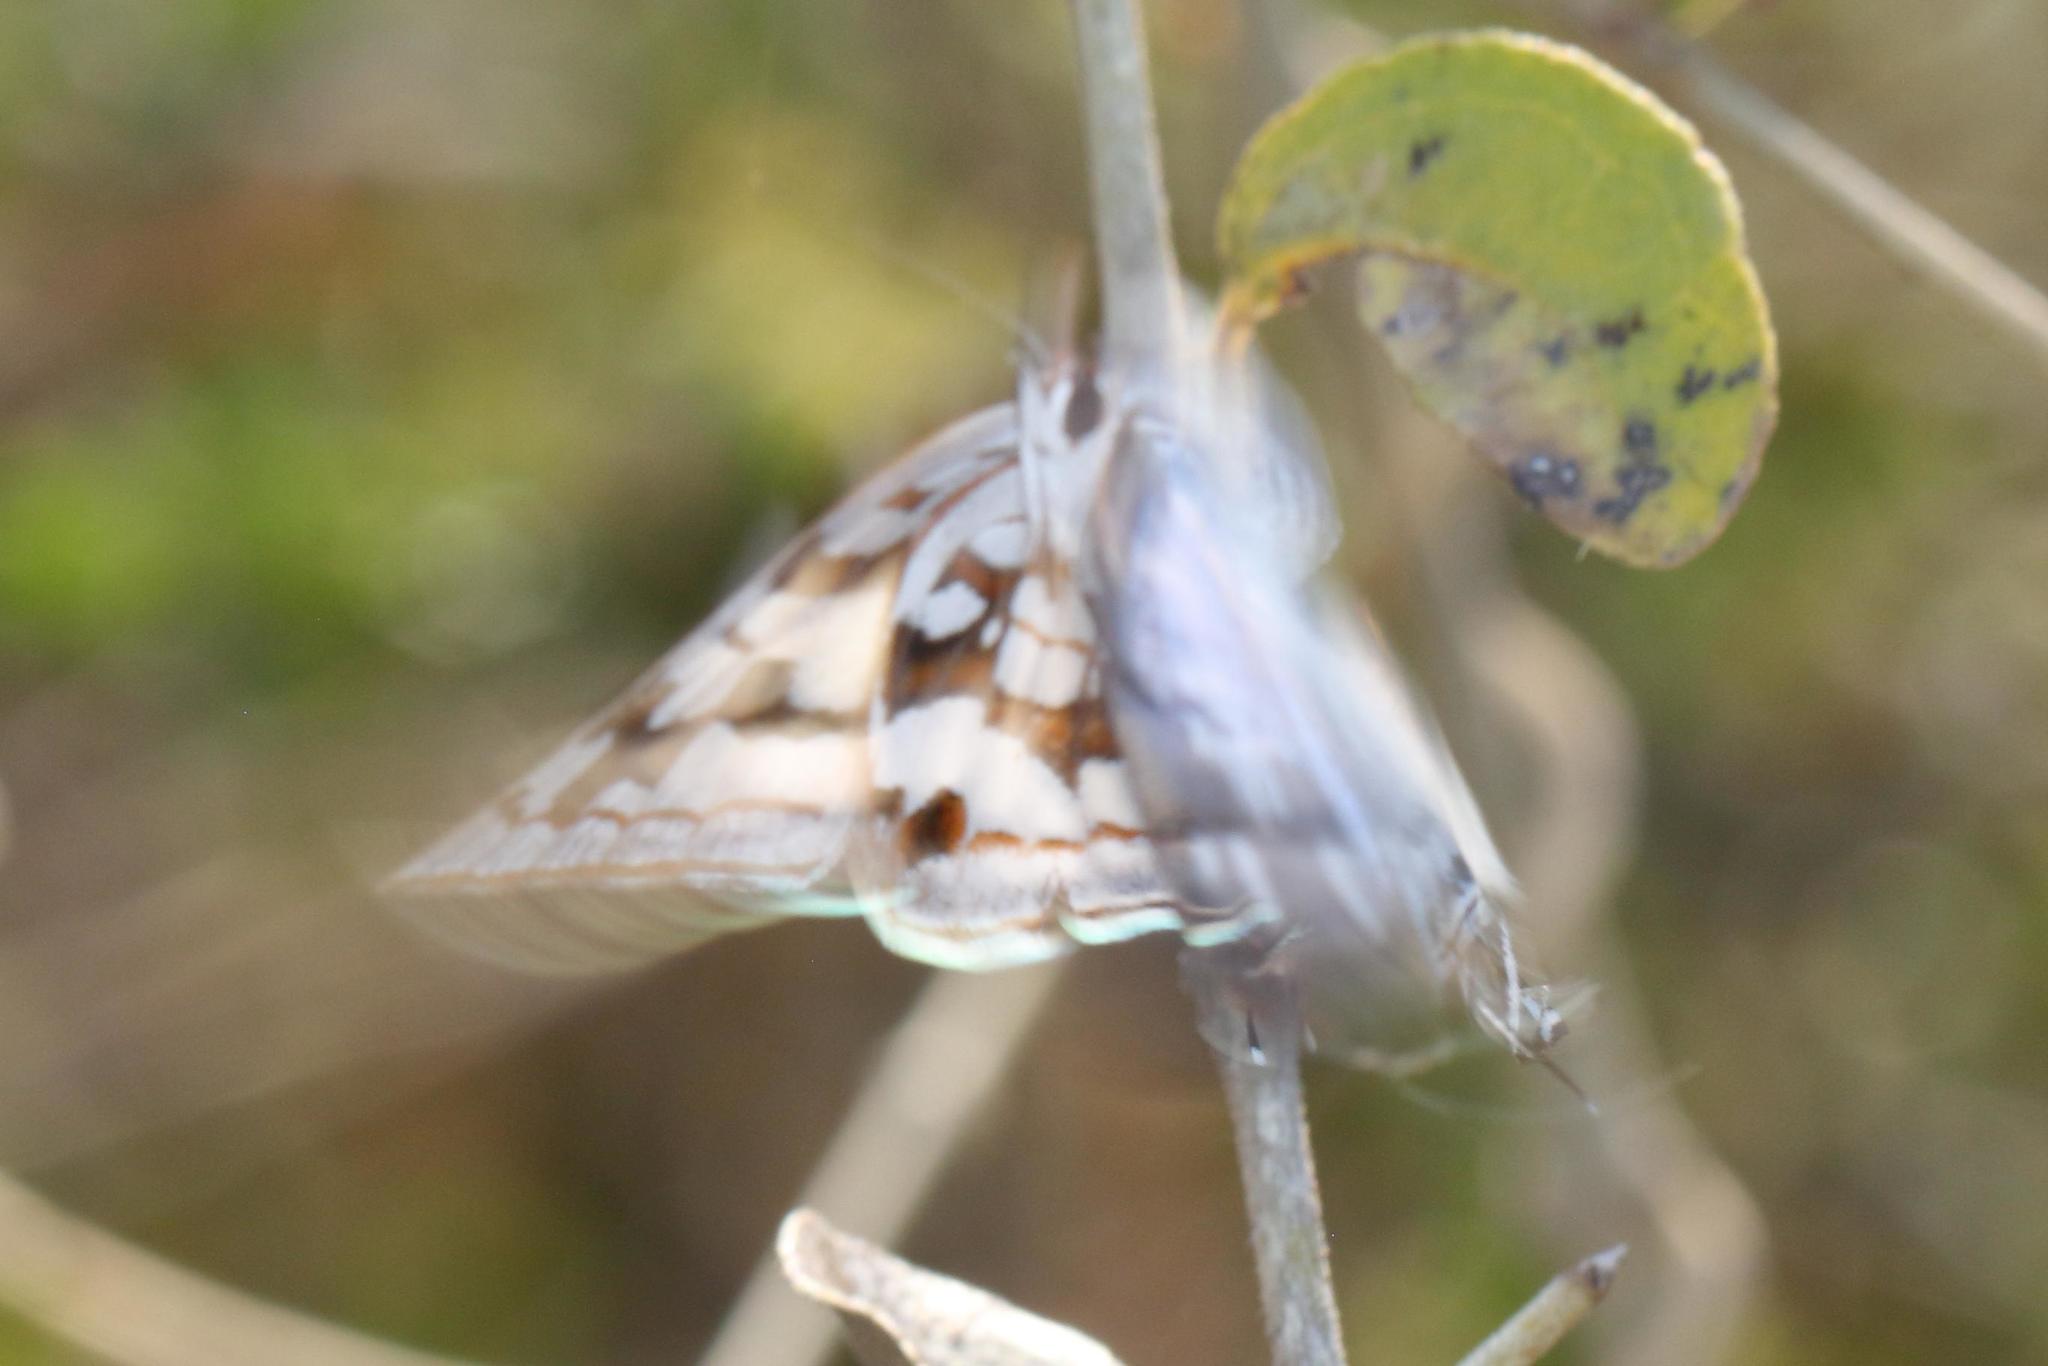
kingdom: Animalia
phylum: Arthropoda
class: Insecta
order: Lepidoptera
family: Lycaenidae
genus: Stugeta
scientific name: Stugeta bowkeri
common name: Bowker's marbled sapphire
